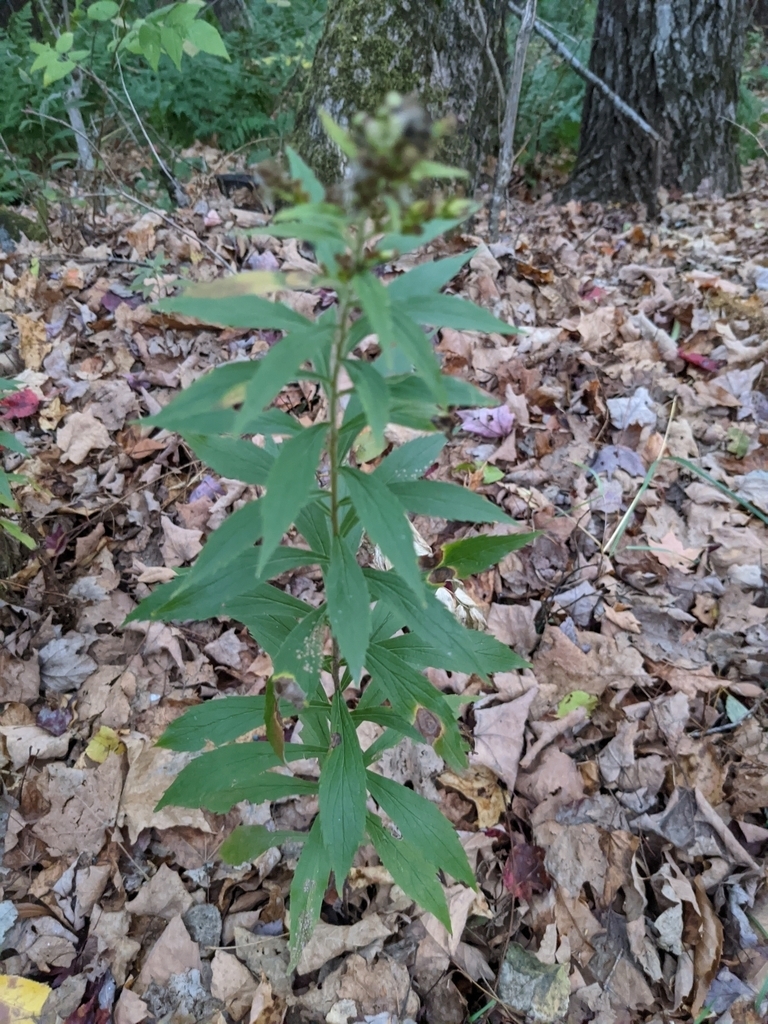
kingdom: Animalia
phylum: Arthropoda
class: Insecta
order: Diptera
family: Cecidomyiidae
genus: Schizomyia
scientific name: Schizomyia racemicola
